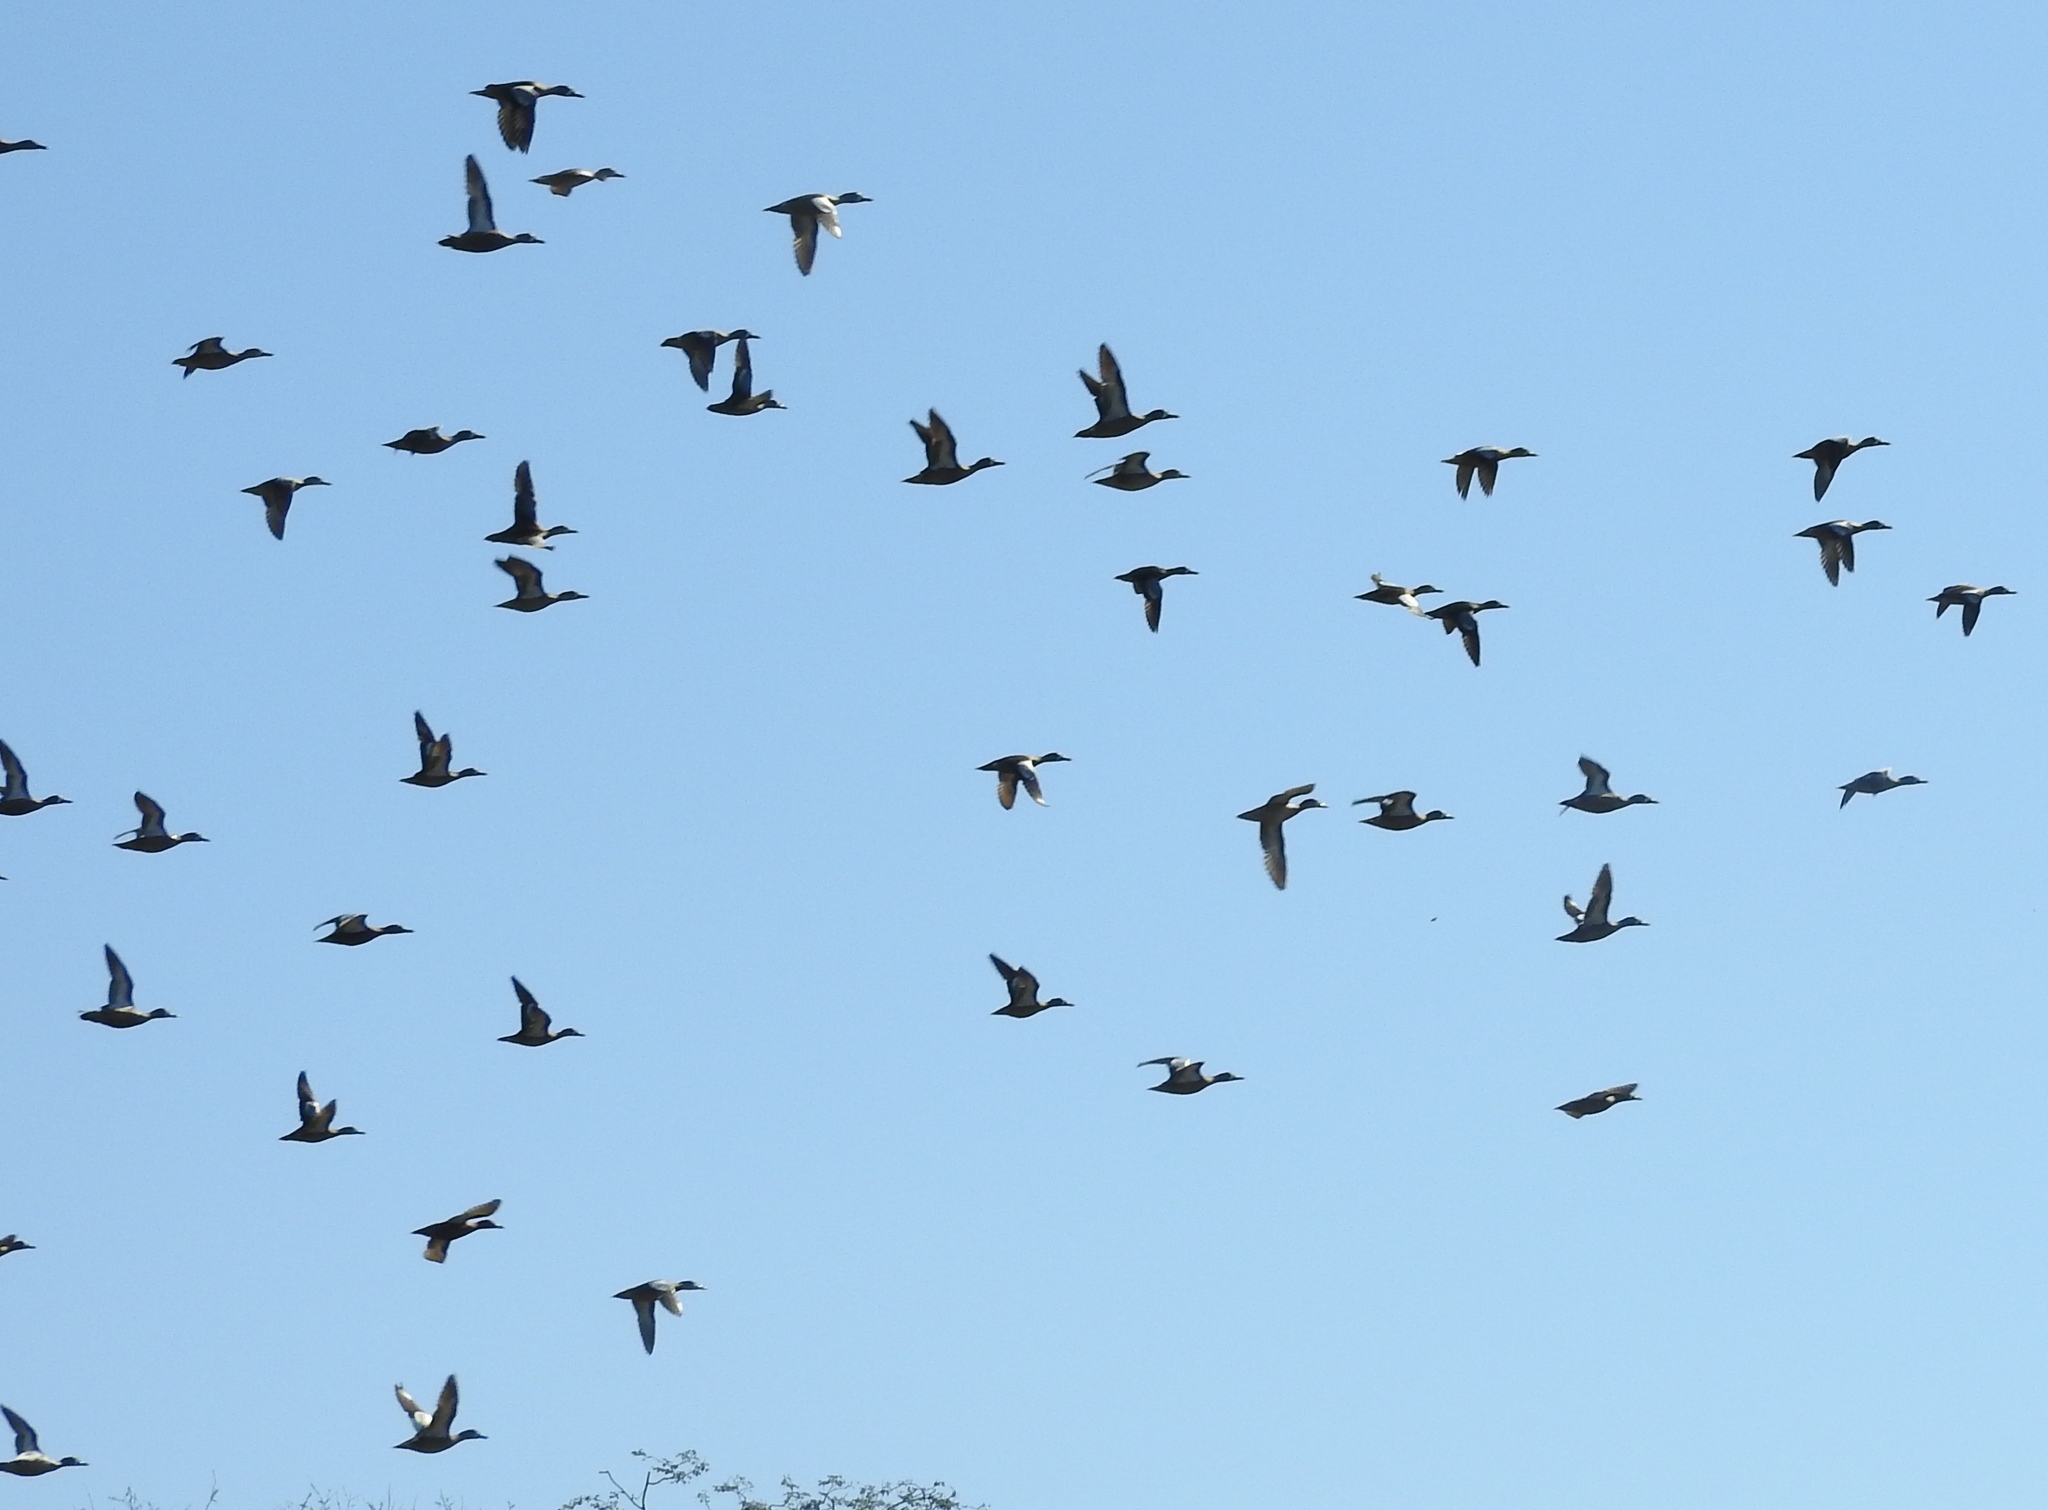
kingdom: Animalia
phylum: Chordata
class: Aves
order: Anseriformes
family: Anatidae
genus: Spatula
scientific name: Spatula discors
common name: Blue-winged teal
